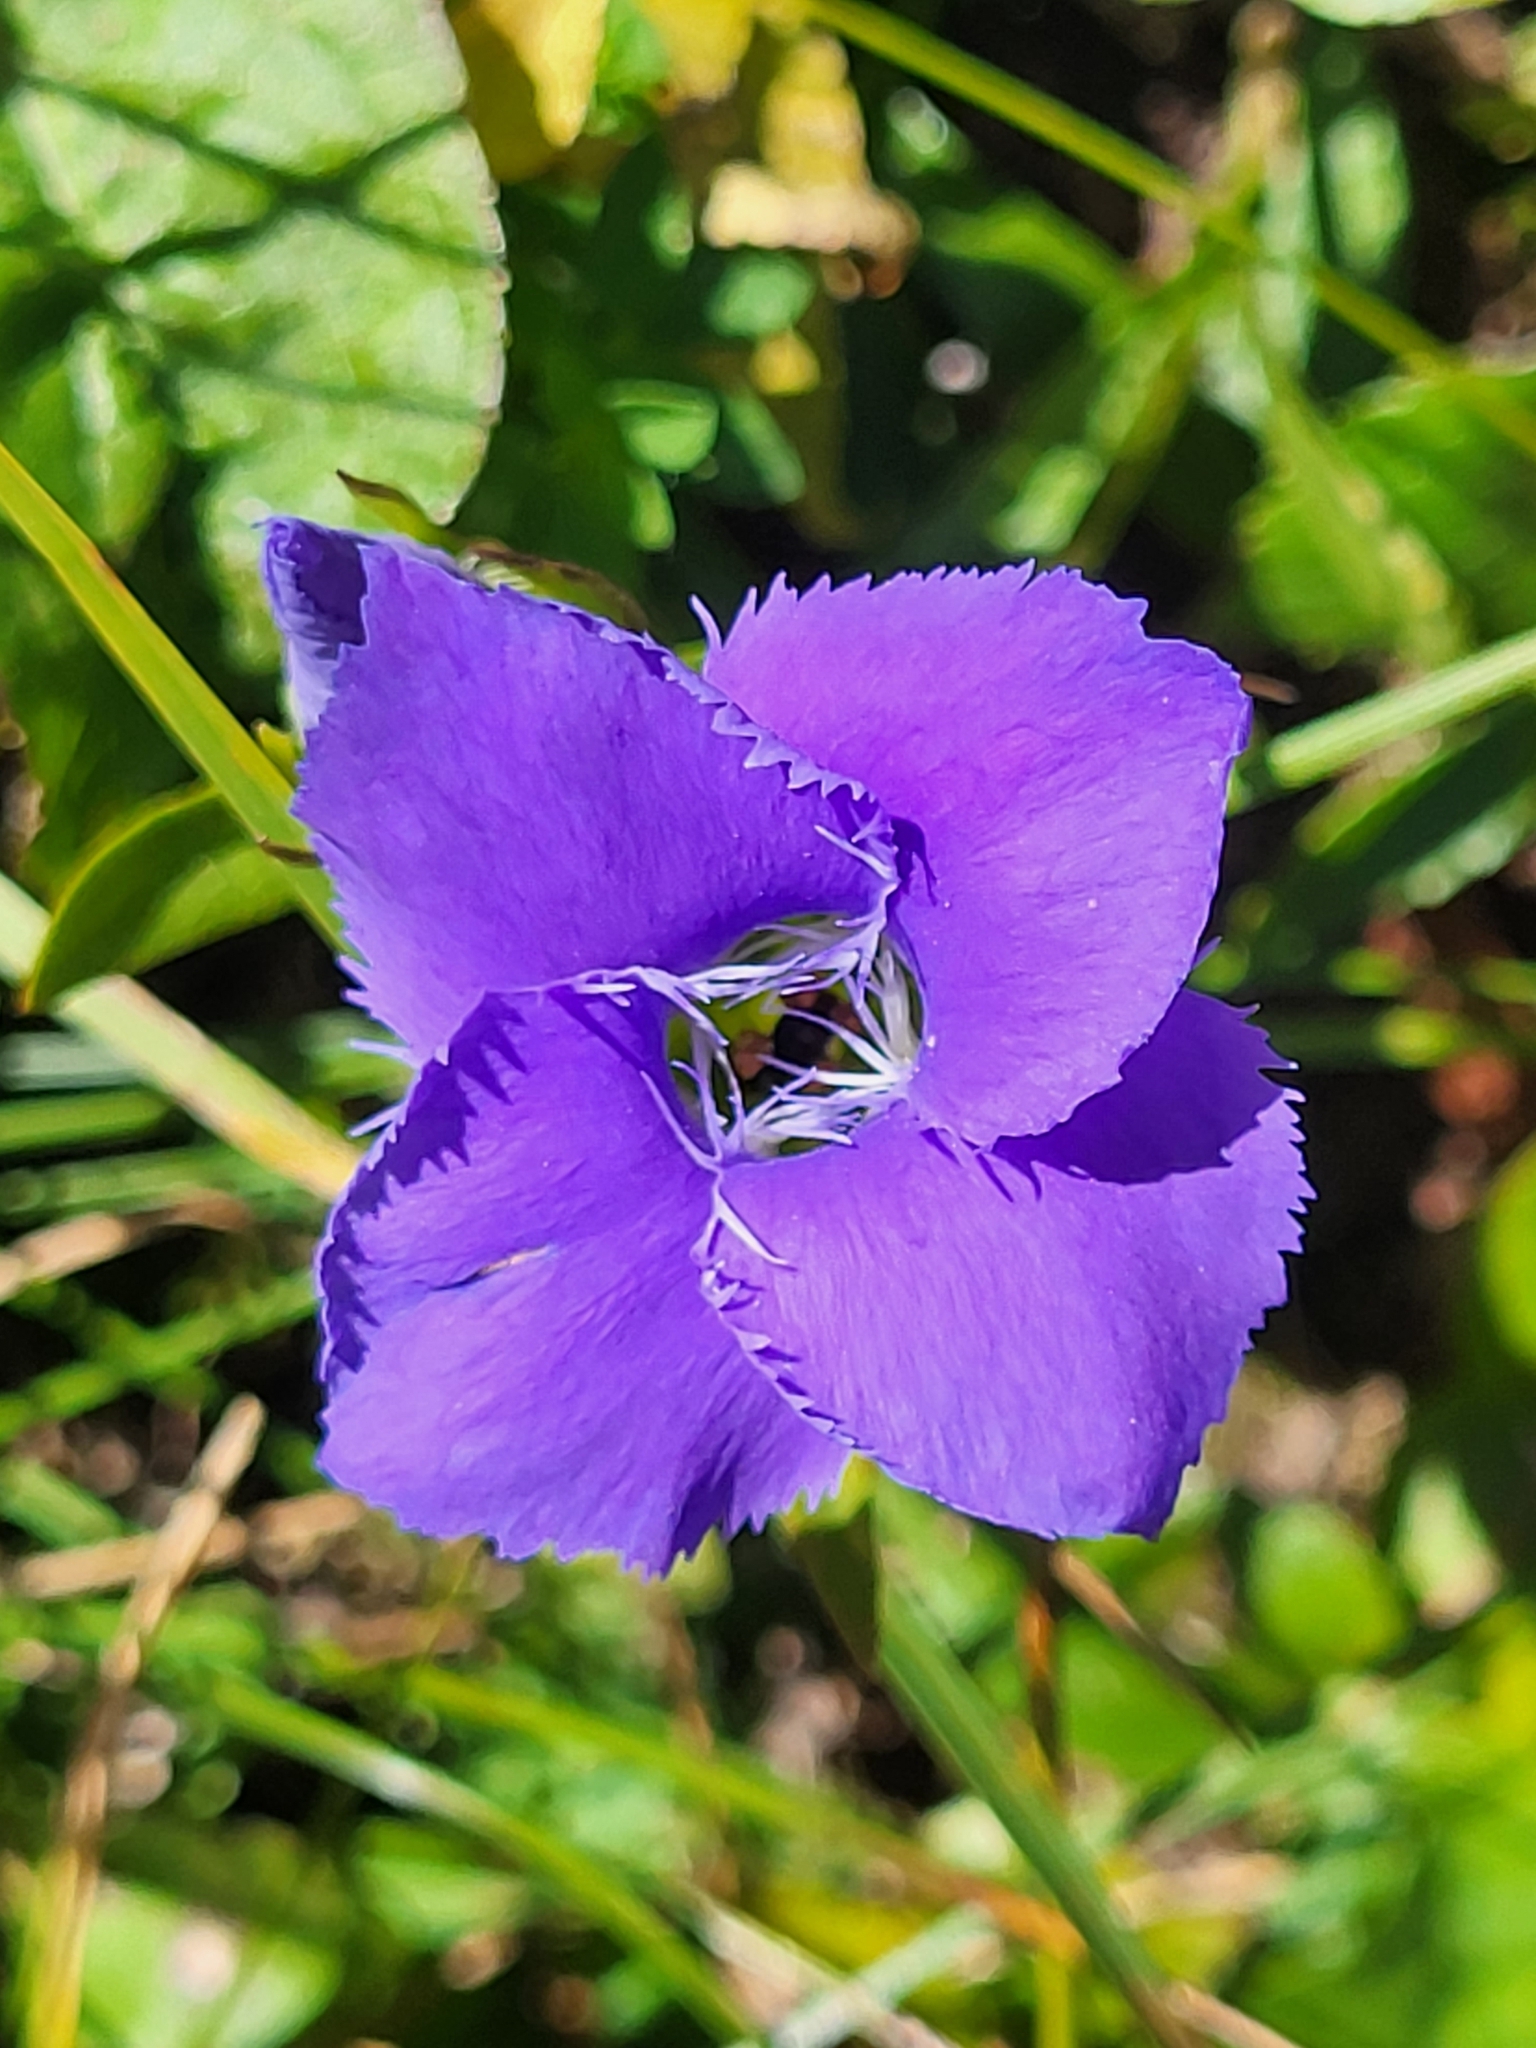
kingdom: Plantae
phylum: Tracheophyta
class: Magnoliopsida
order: Gentianales
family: Gentianaceae
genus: Gentianopsis
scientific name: Gentianopsis ciliata
